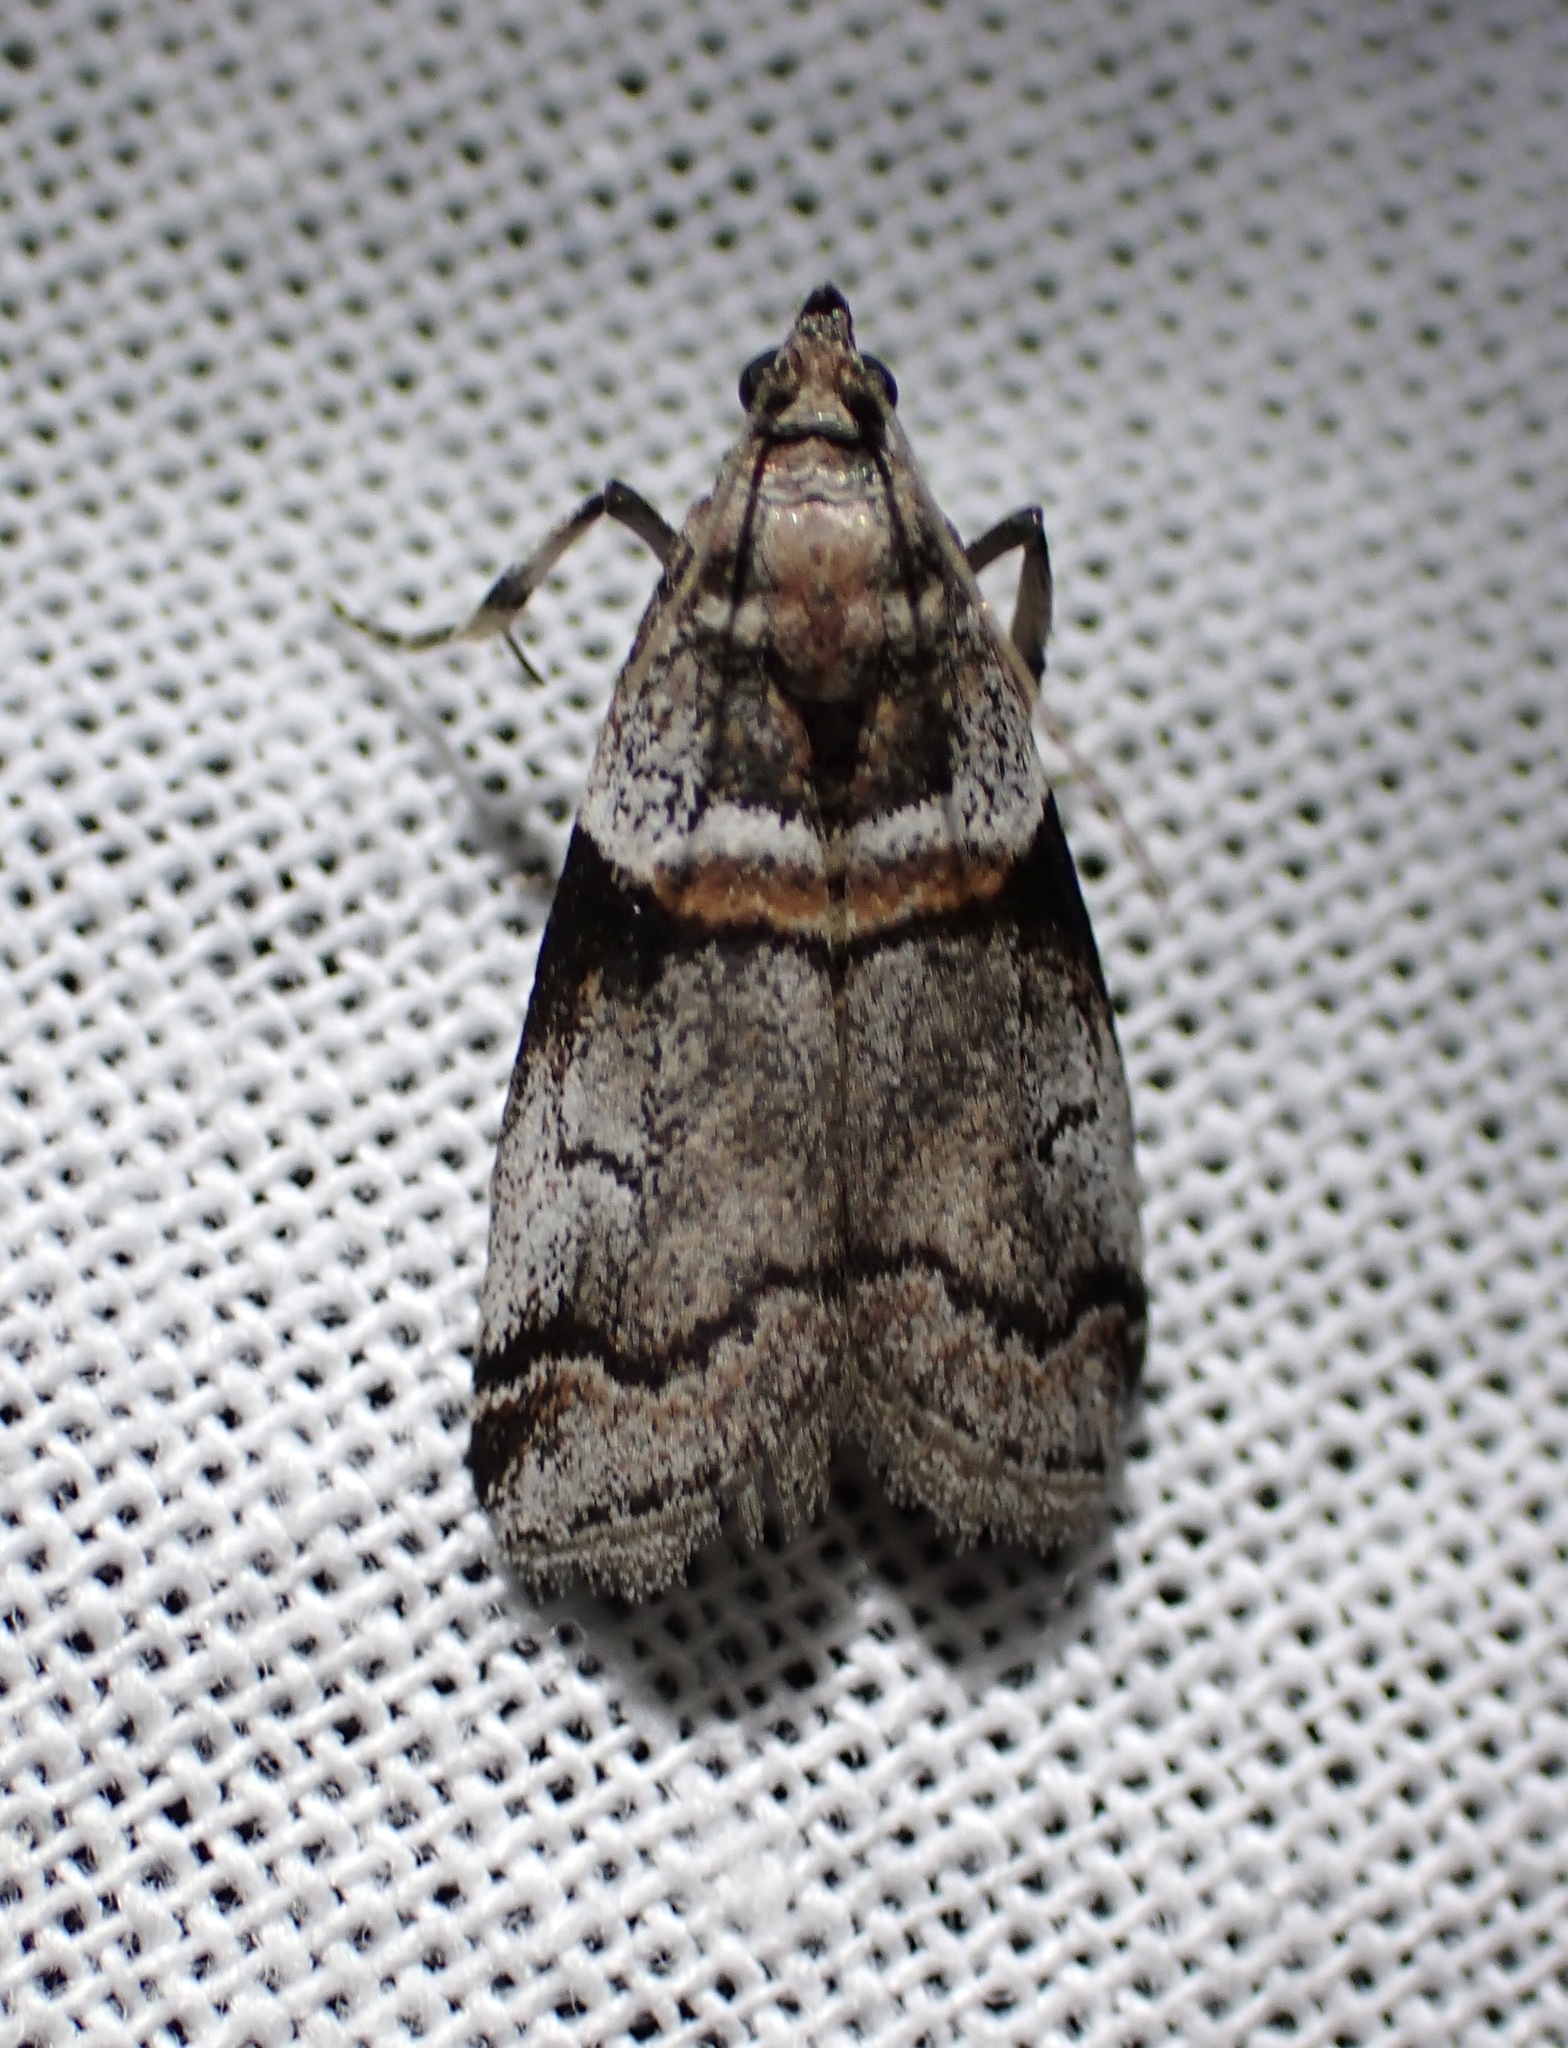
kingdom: Animalia
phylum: Arthropoda
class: Insecta
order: Lepidoptera
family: Pyralidae
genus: Acrobasis
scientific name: Acrobasis tricolorella
